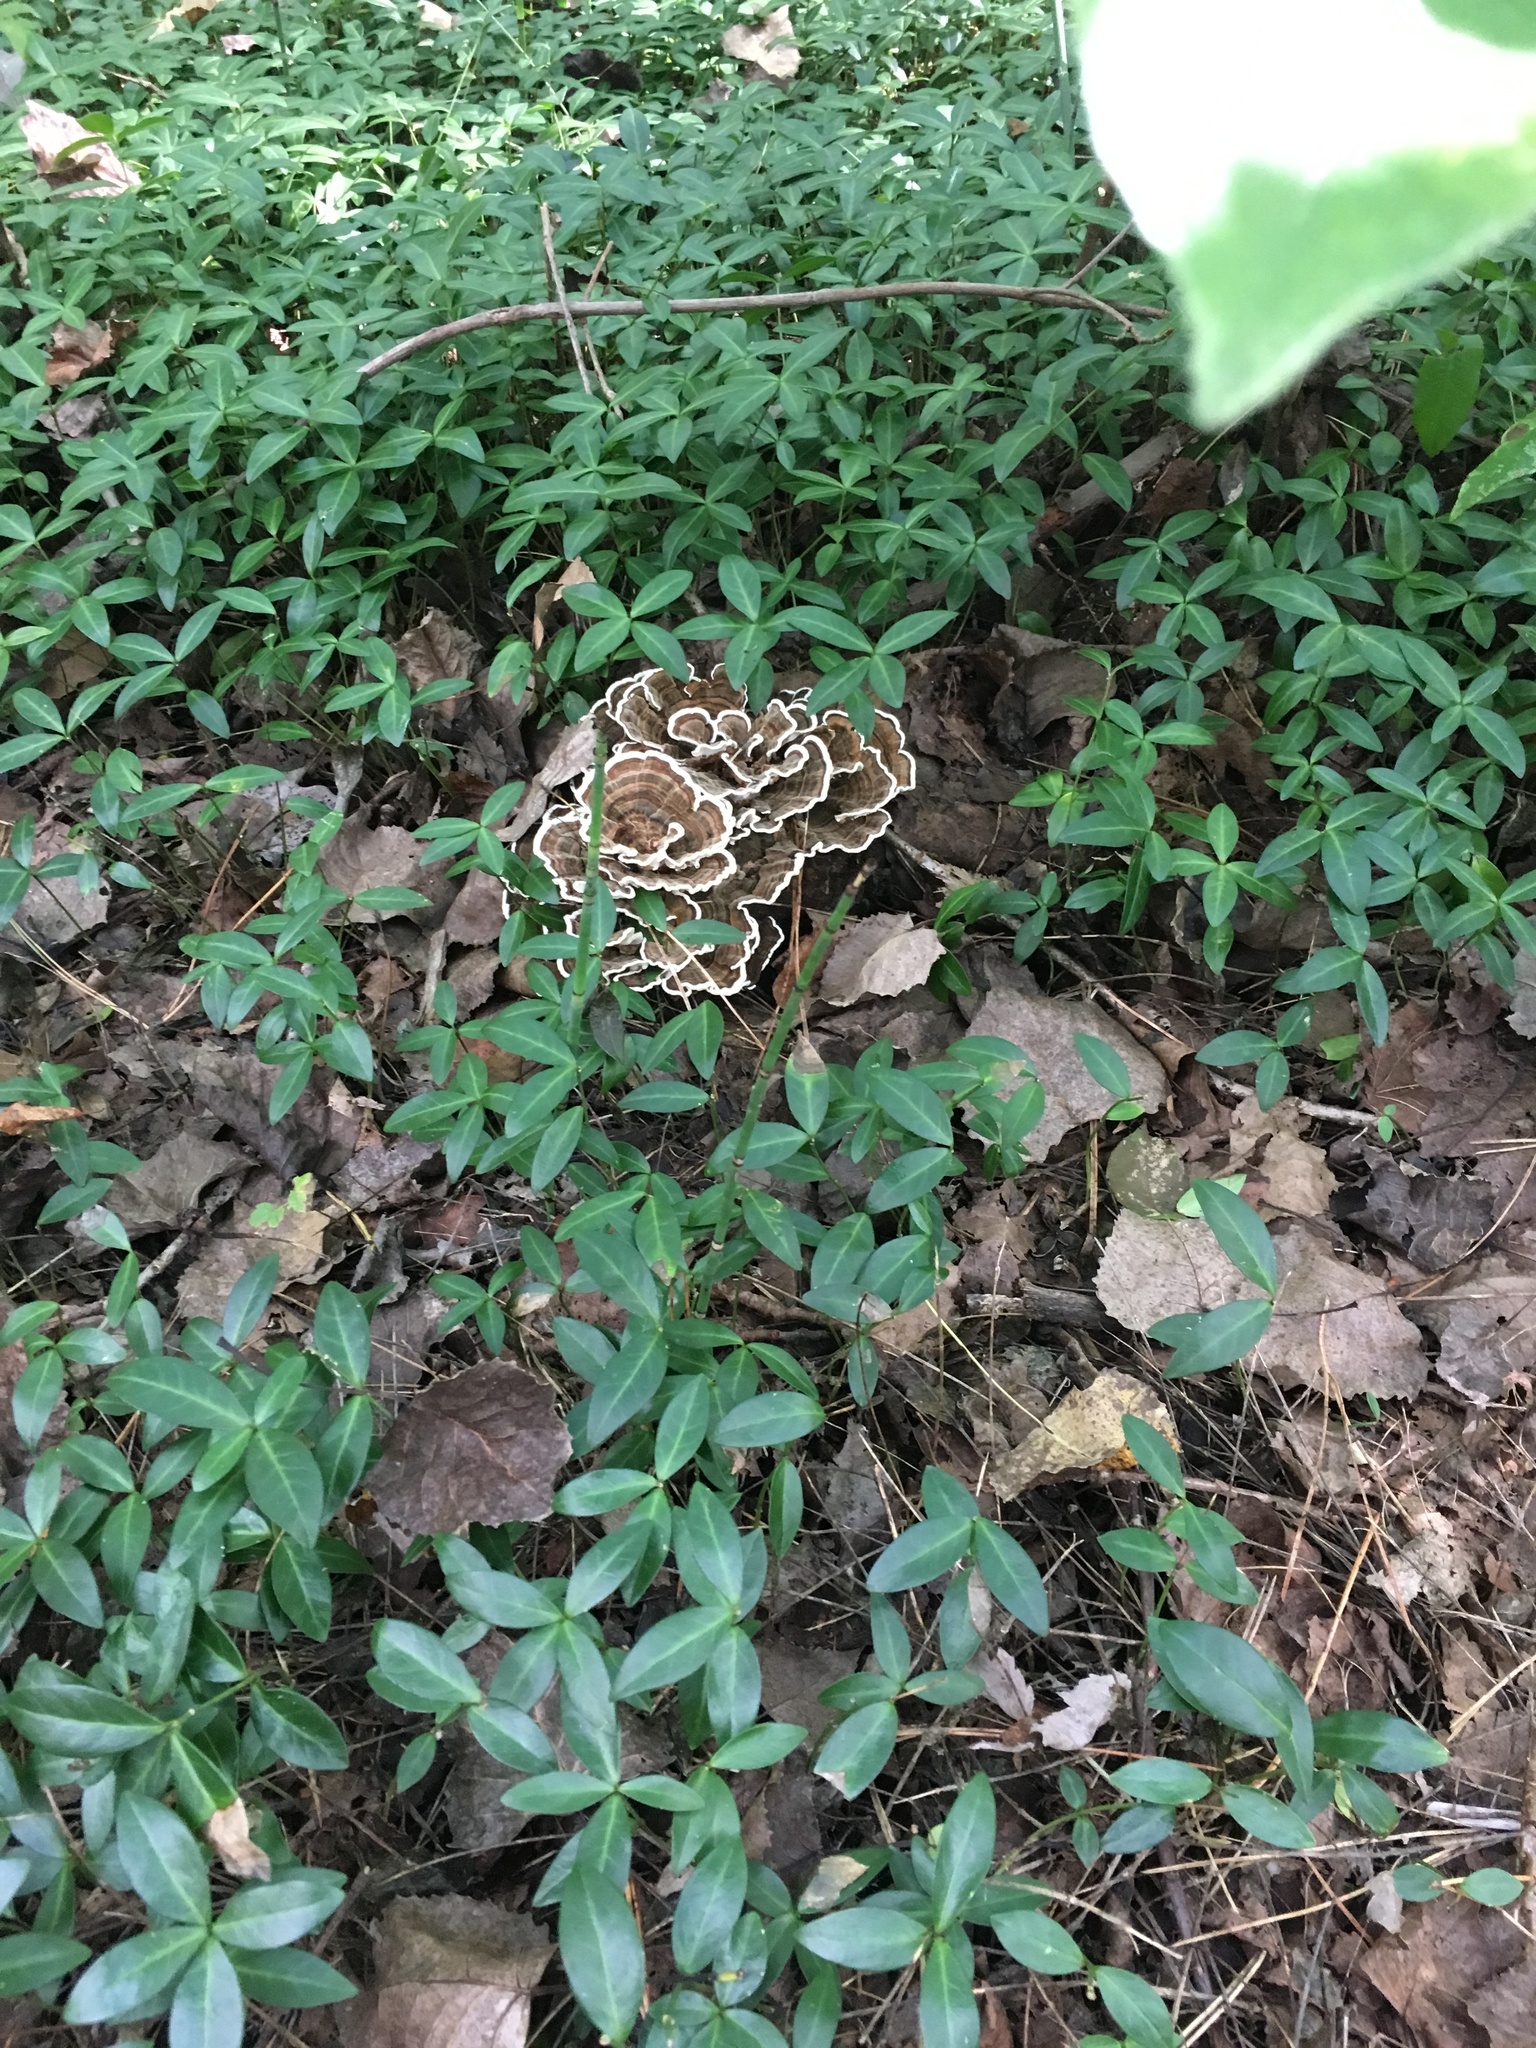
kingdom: Fungi
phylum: Basidiomycota
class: Agaricomycetes
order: Polyporales
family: Polyporaceae
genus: Trametes
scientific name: Trametes versicolor
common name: Turkeytail
